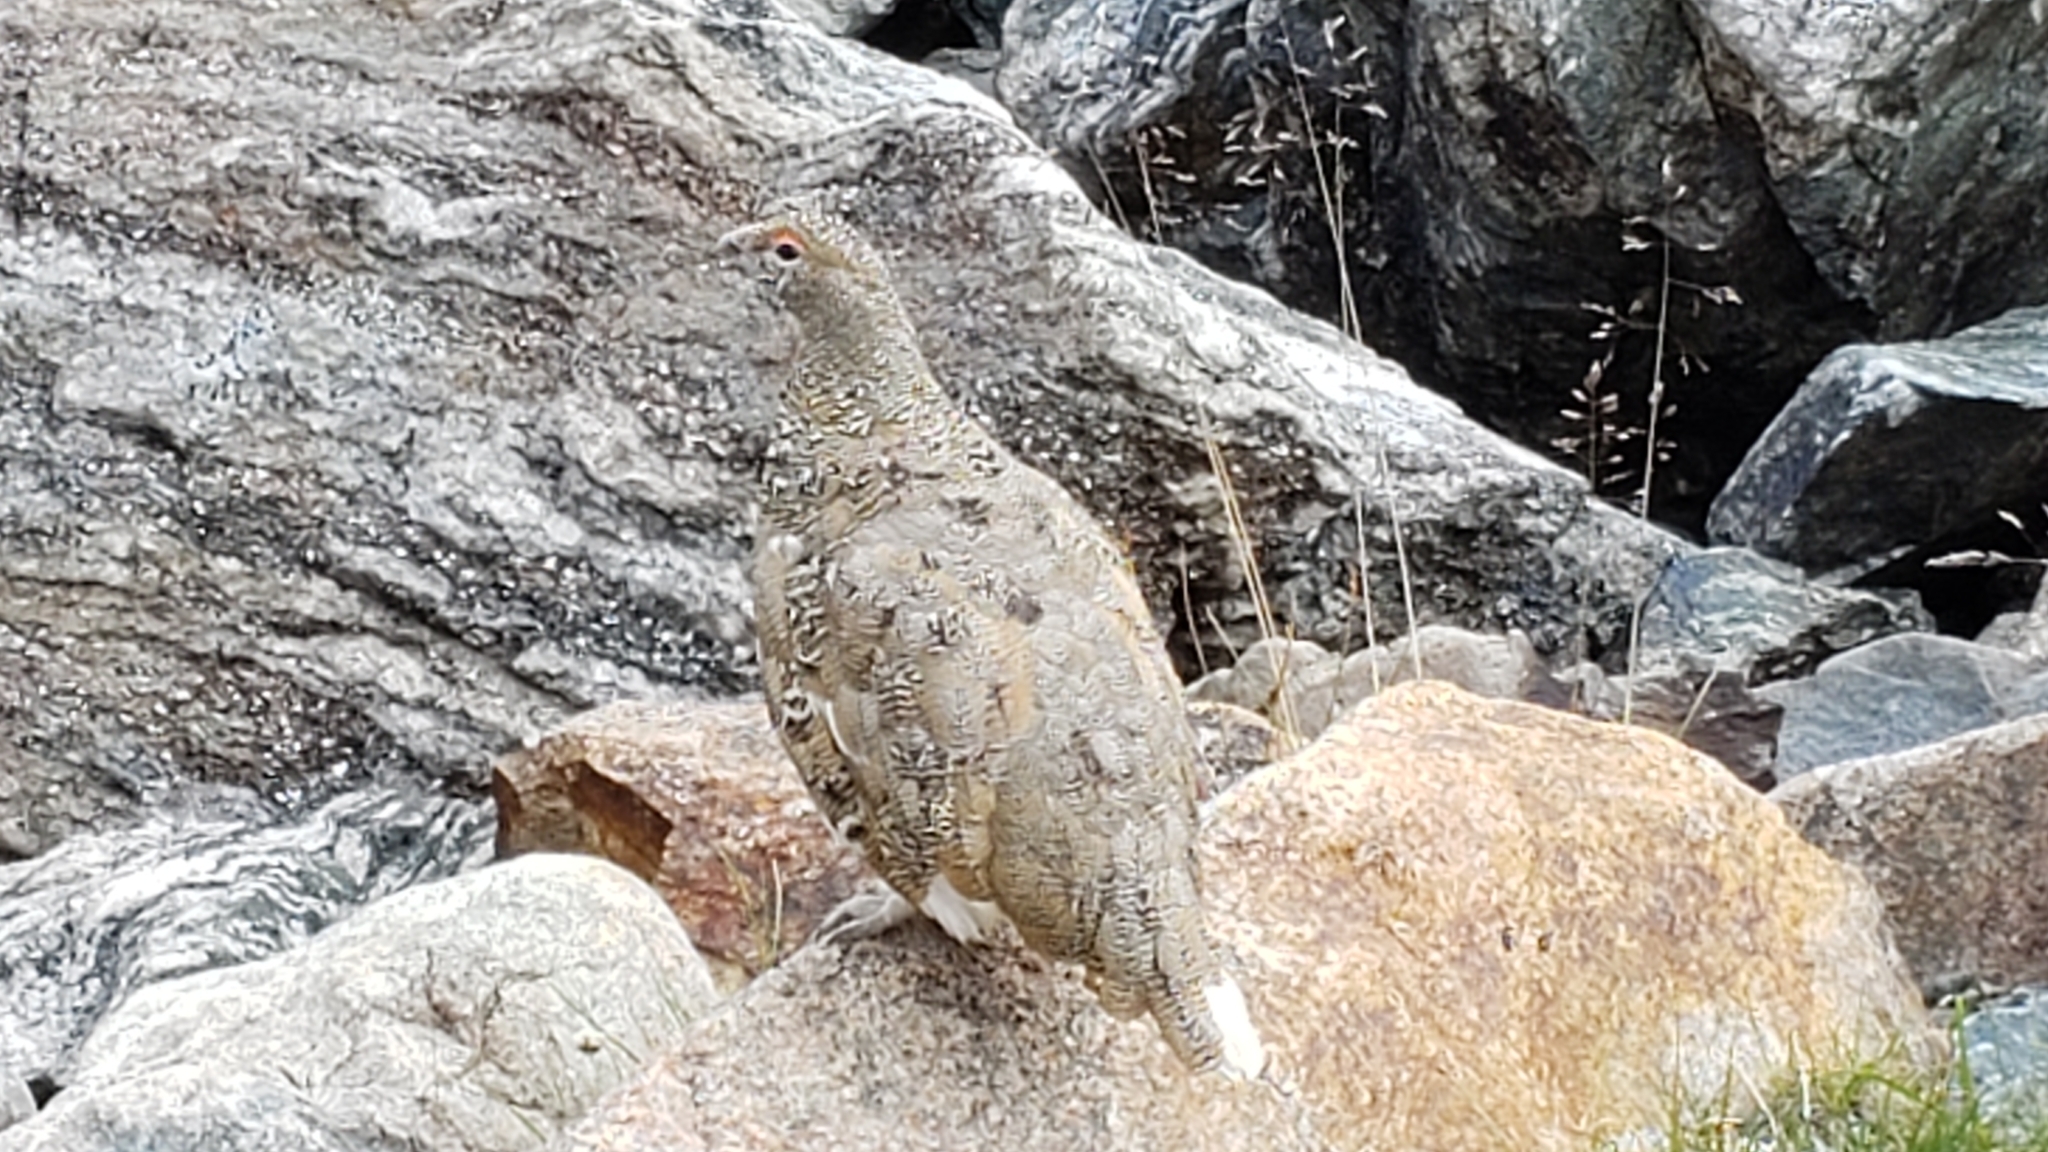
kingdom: Animalia
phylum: Chordata
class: Aves
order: Galliformes
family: Phasianidae
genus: Lagopus
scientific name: Lagopus leucura
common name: White-tailed ptarmigan
